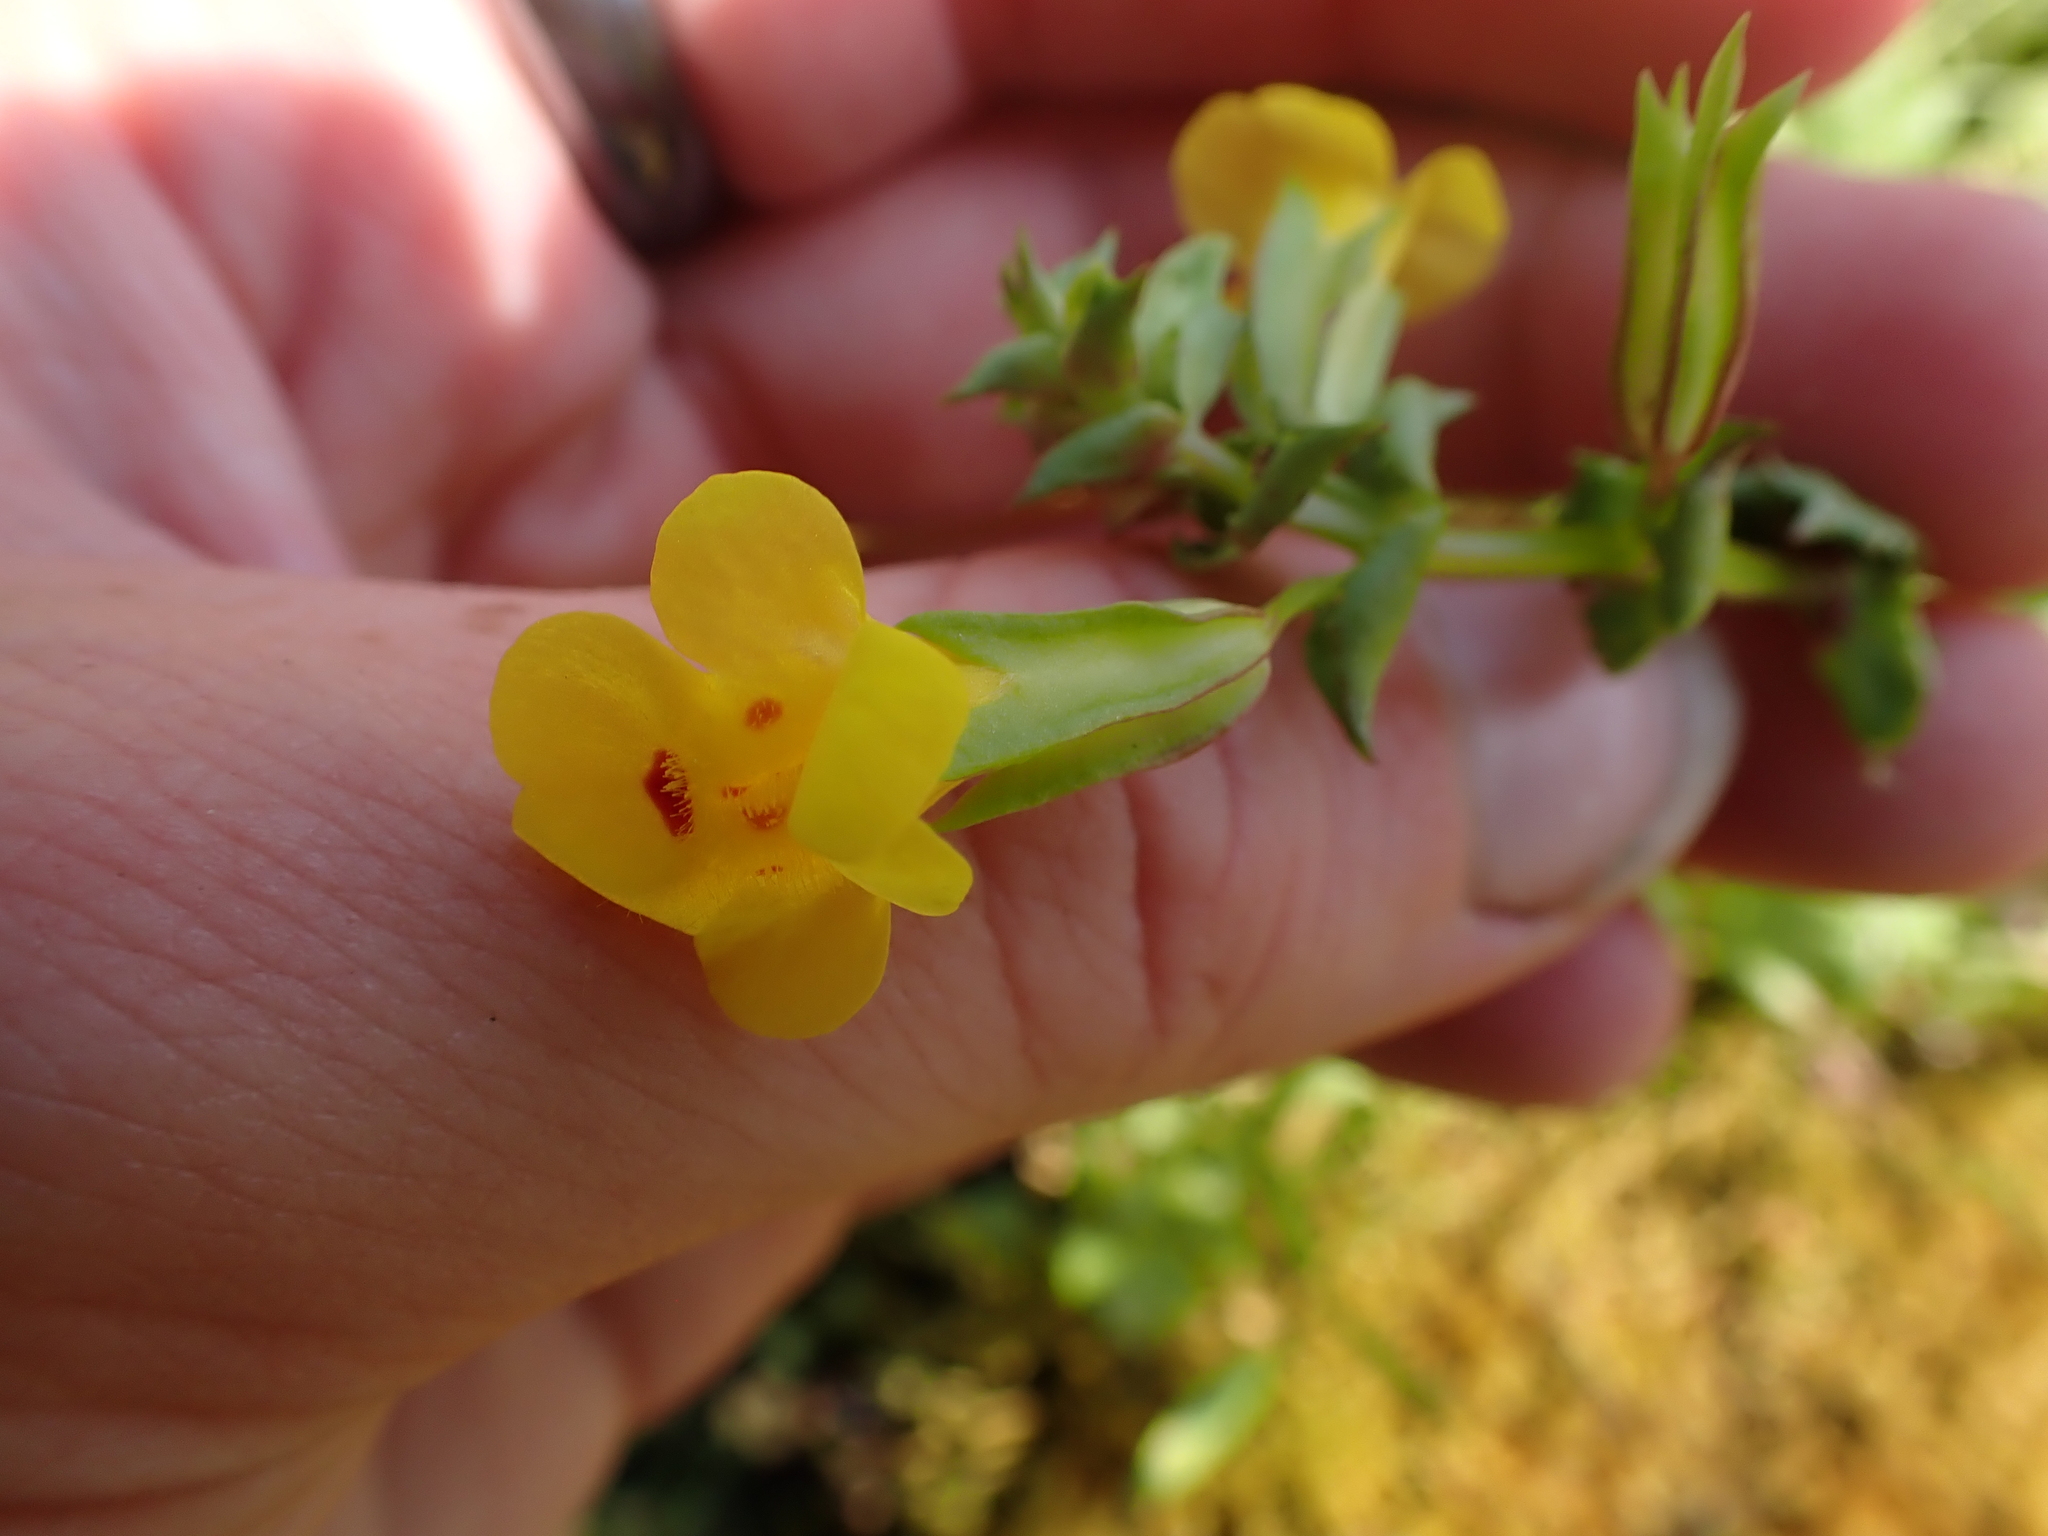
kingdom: Plantae
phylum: Tracheophyta
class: Magnoliopsida
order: Lamiales
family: Phrymaceae
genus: Erythranthe
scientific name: Erythranthe nasuta
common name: Sooke monkeyflower
